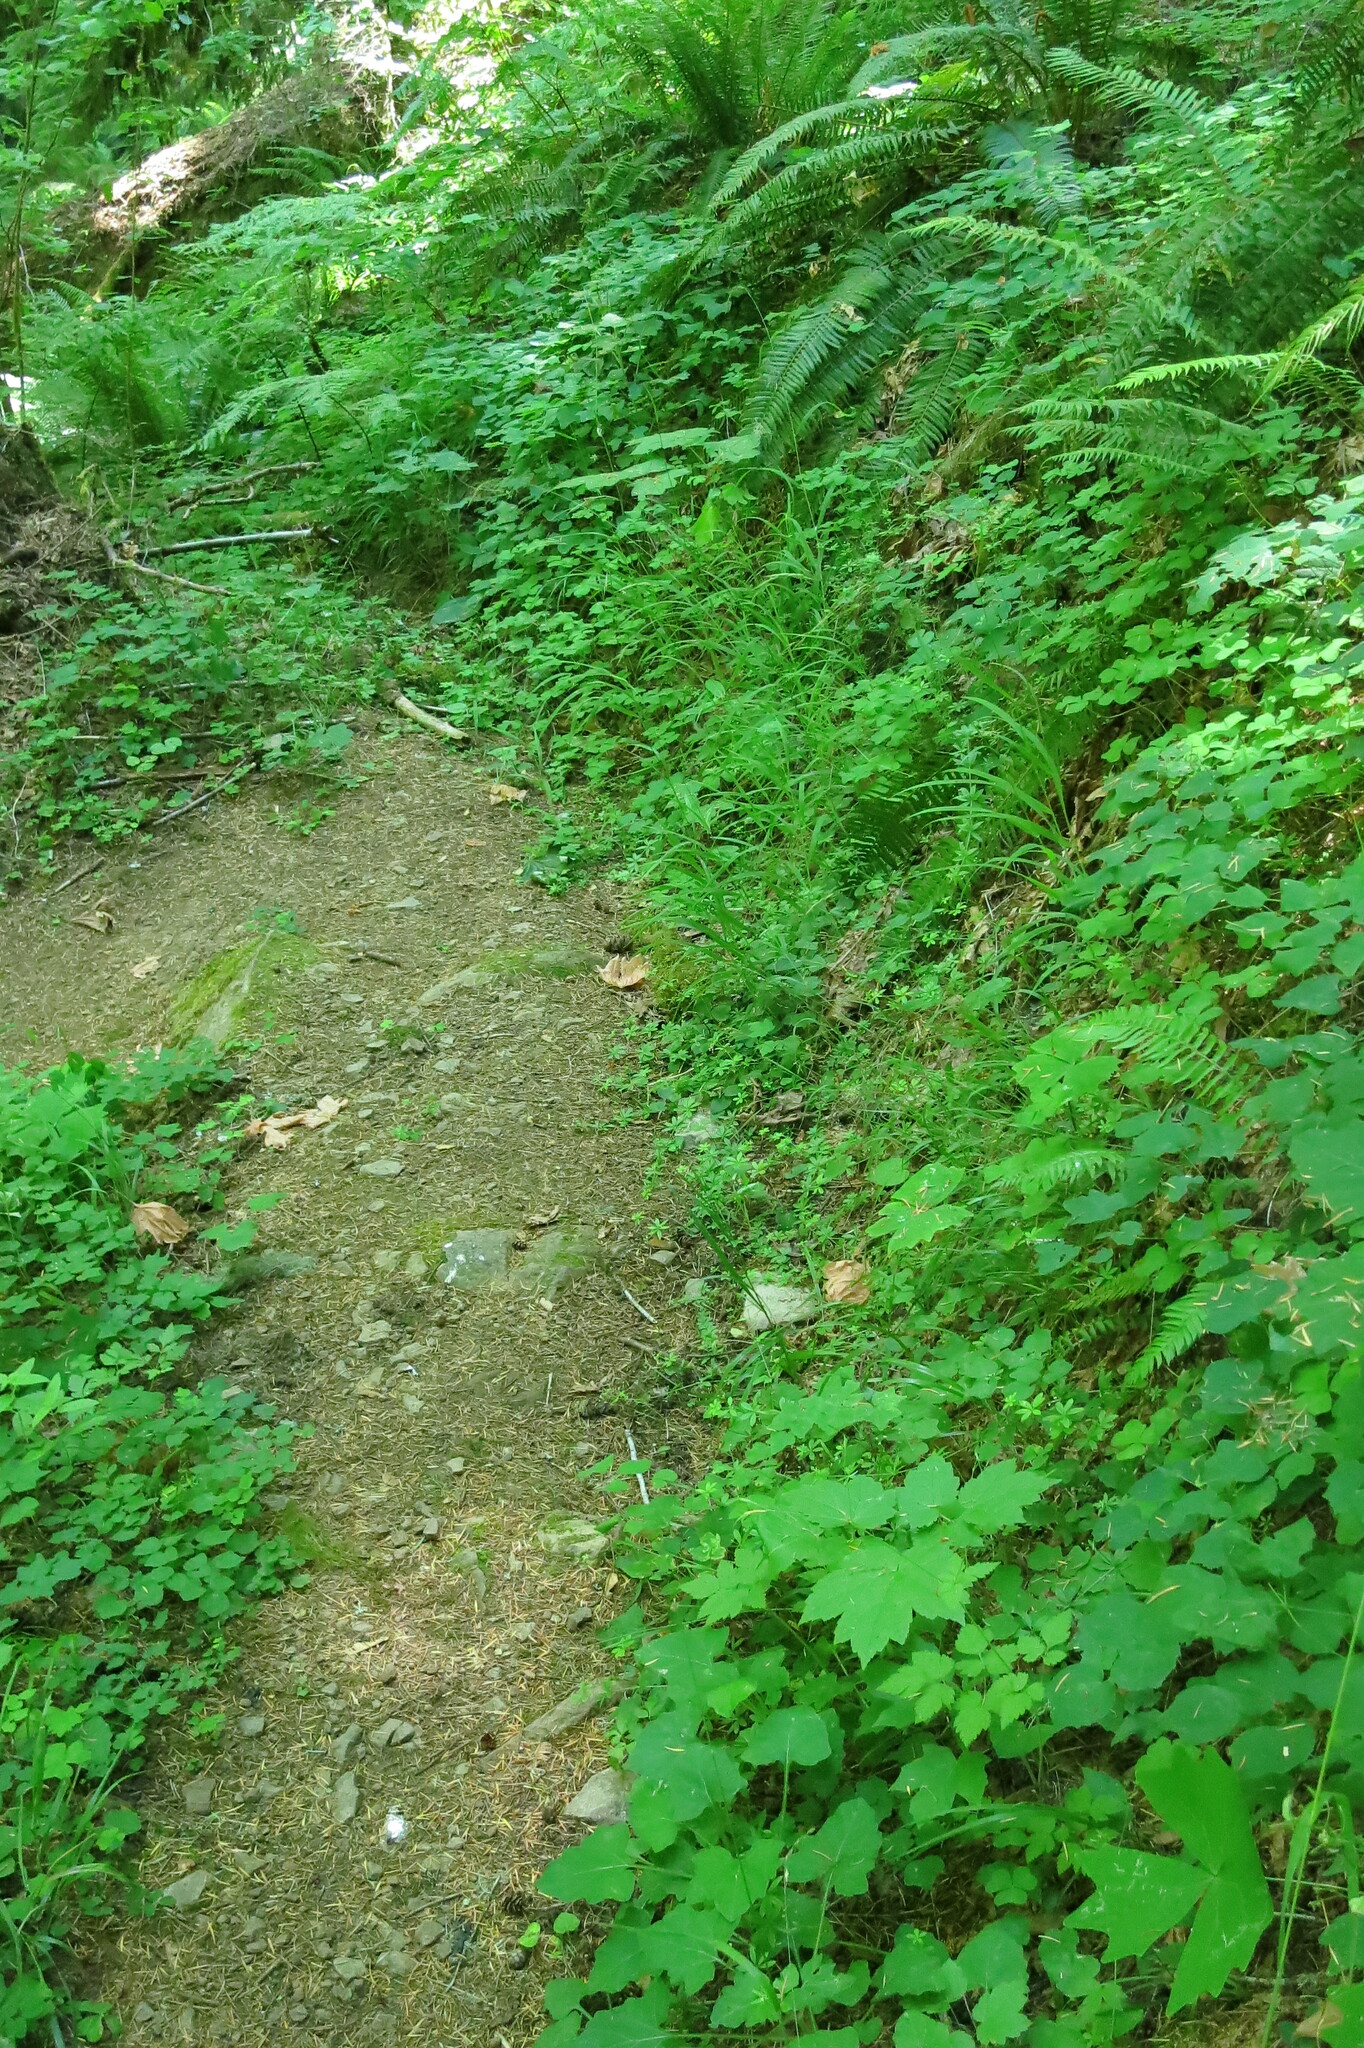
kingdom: Plantae
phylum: Tracheophyta
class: Magnoliopsida
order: Ranunculales
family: Ranunculaceae
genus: Actaea
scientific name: Actaea elata
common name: Tall bugbane
